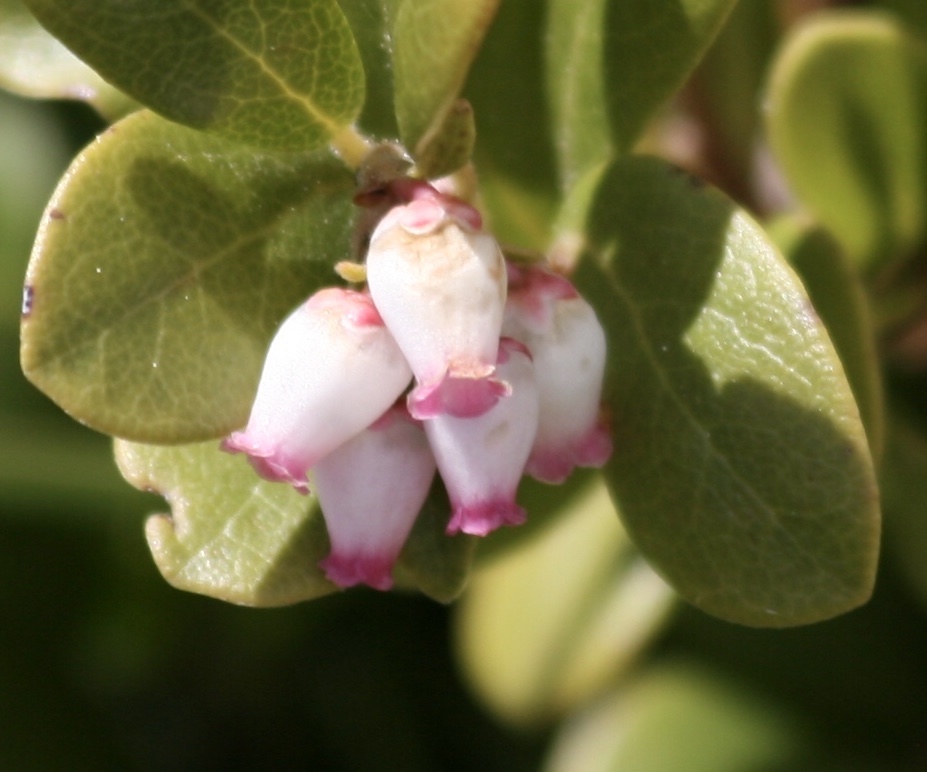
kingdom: Plantae
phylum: Tracheophyta
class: Magnoliopsida
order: Ericales
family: Ericaceae
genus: Arctostaphylos
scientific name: Arctostaphylos uva-ursi
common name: Bearberry
